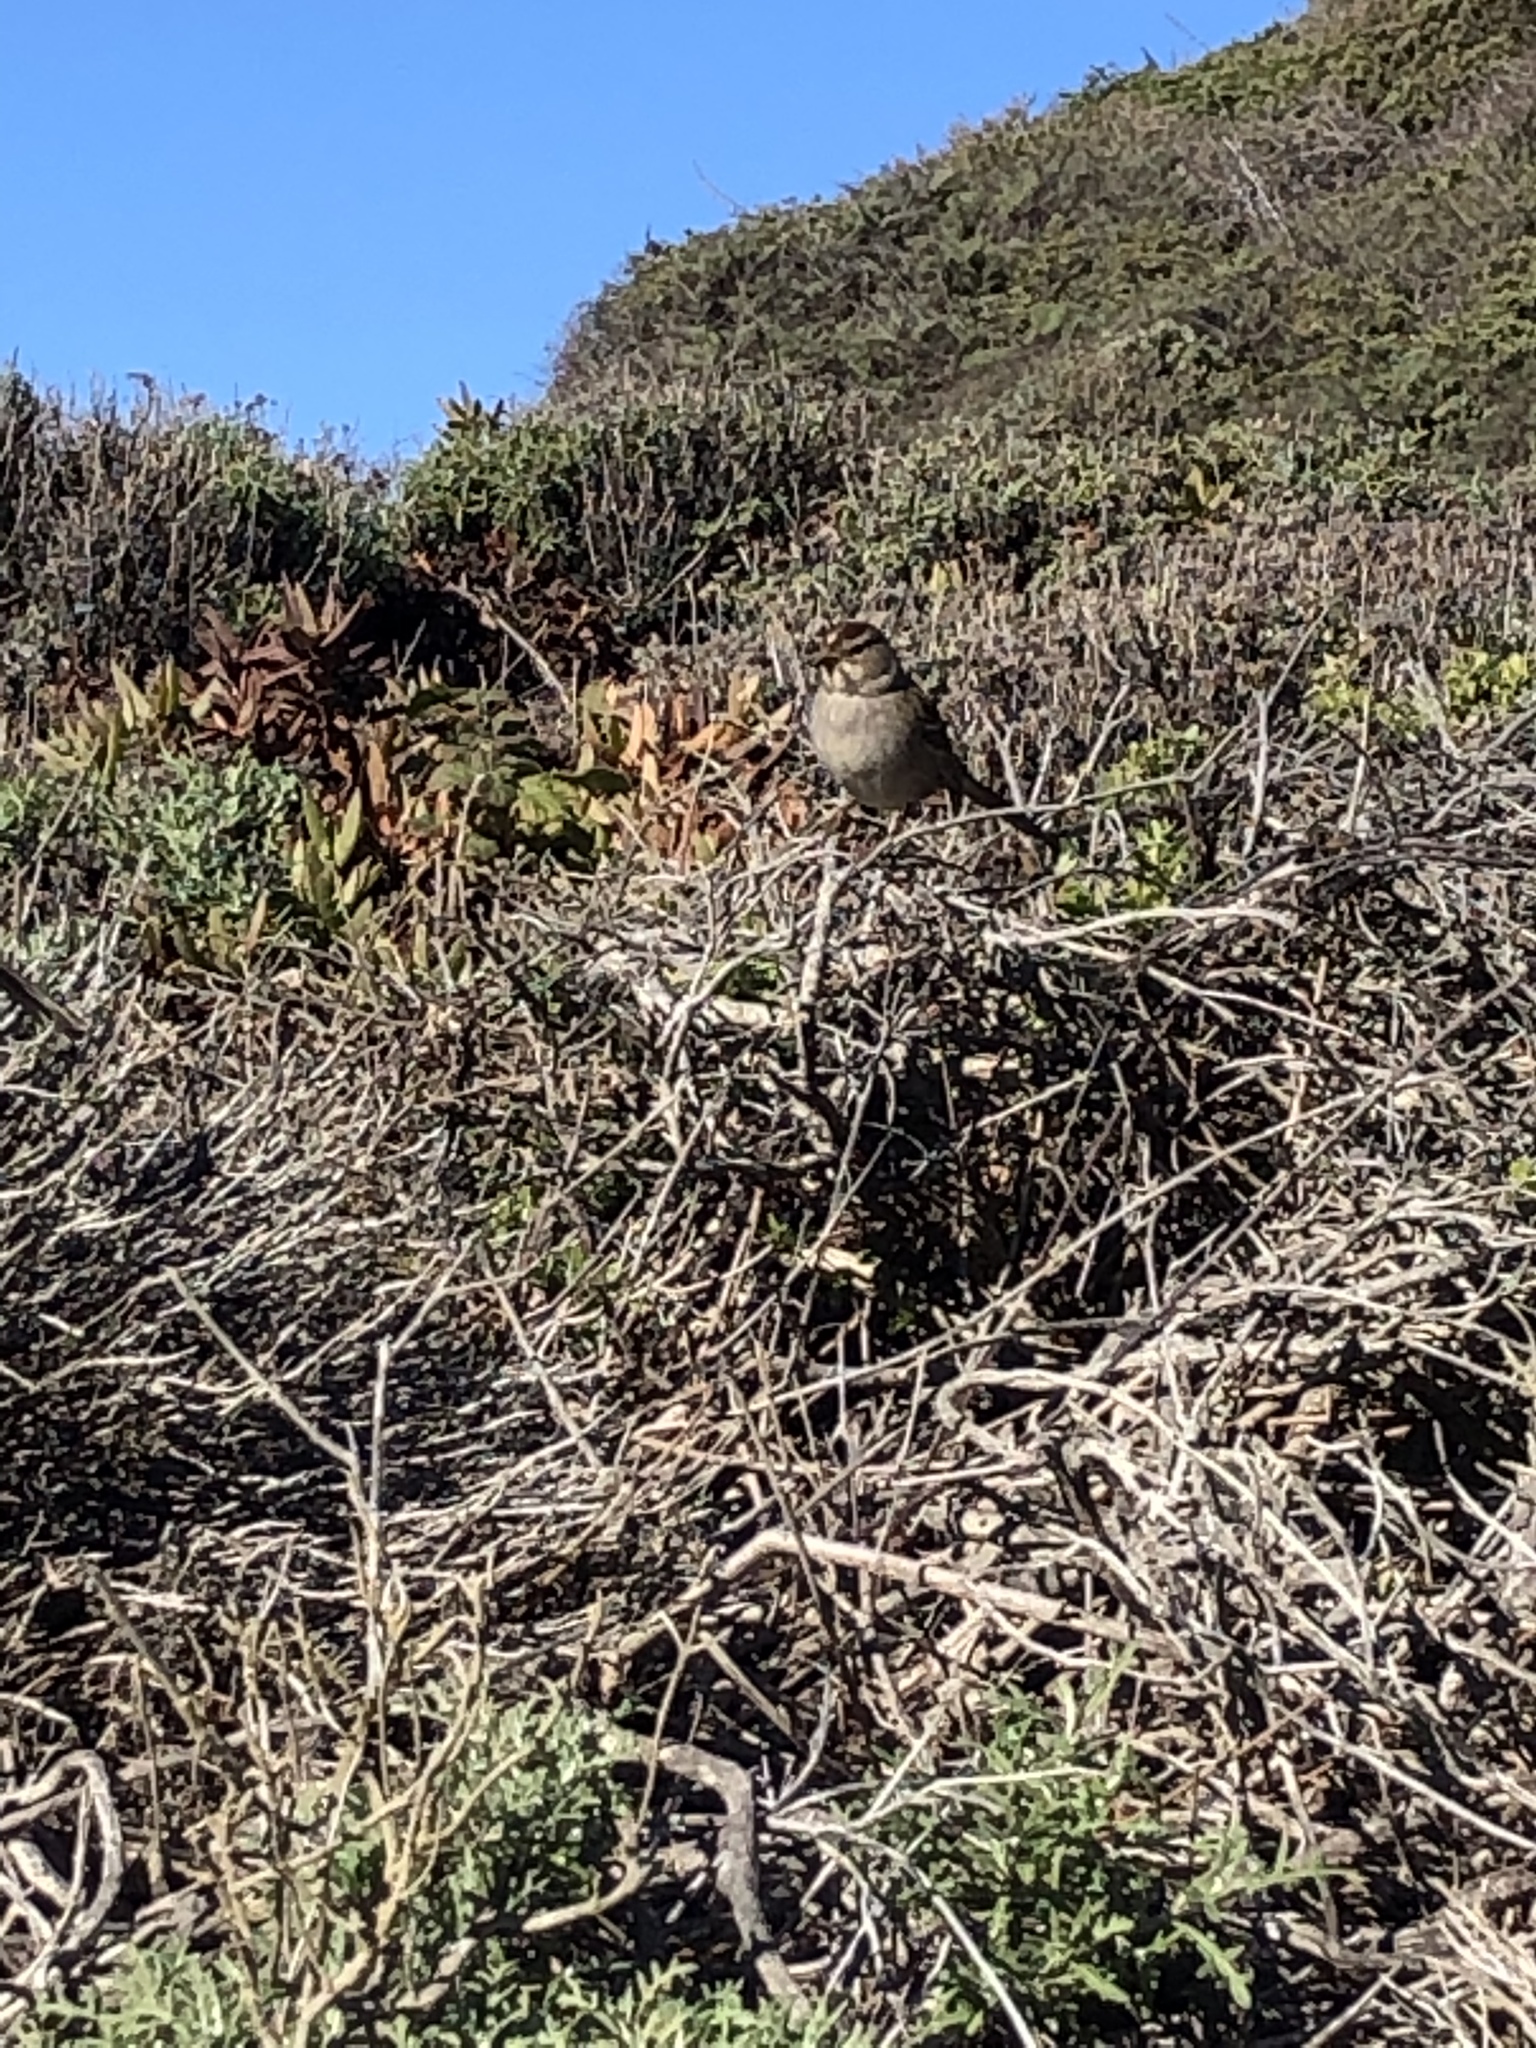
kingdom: Animalia
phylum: Chordata
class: Aves
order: Passeriformes
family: Passerellidae
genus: Zonotrichia
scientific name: Zonotrichia leucophrys
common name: White-crowned sparrow
